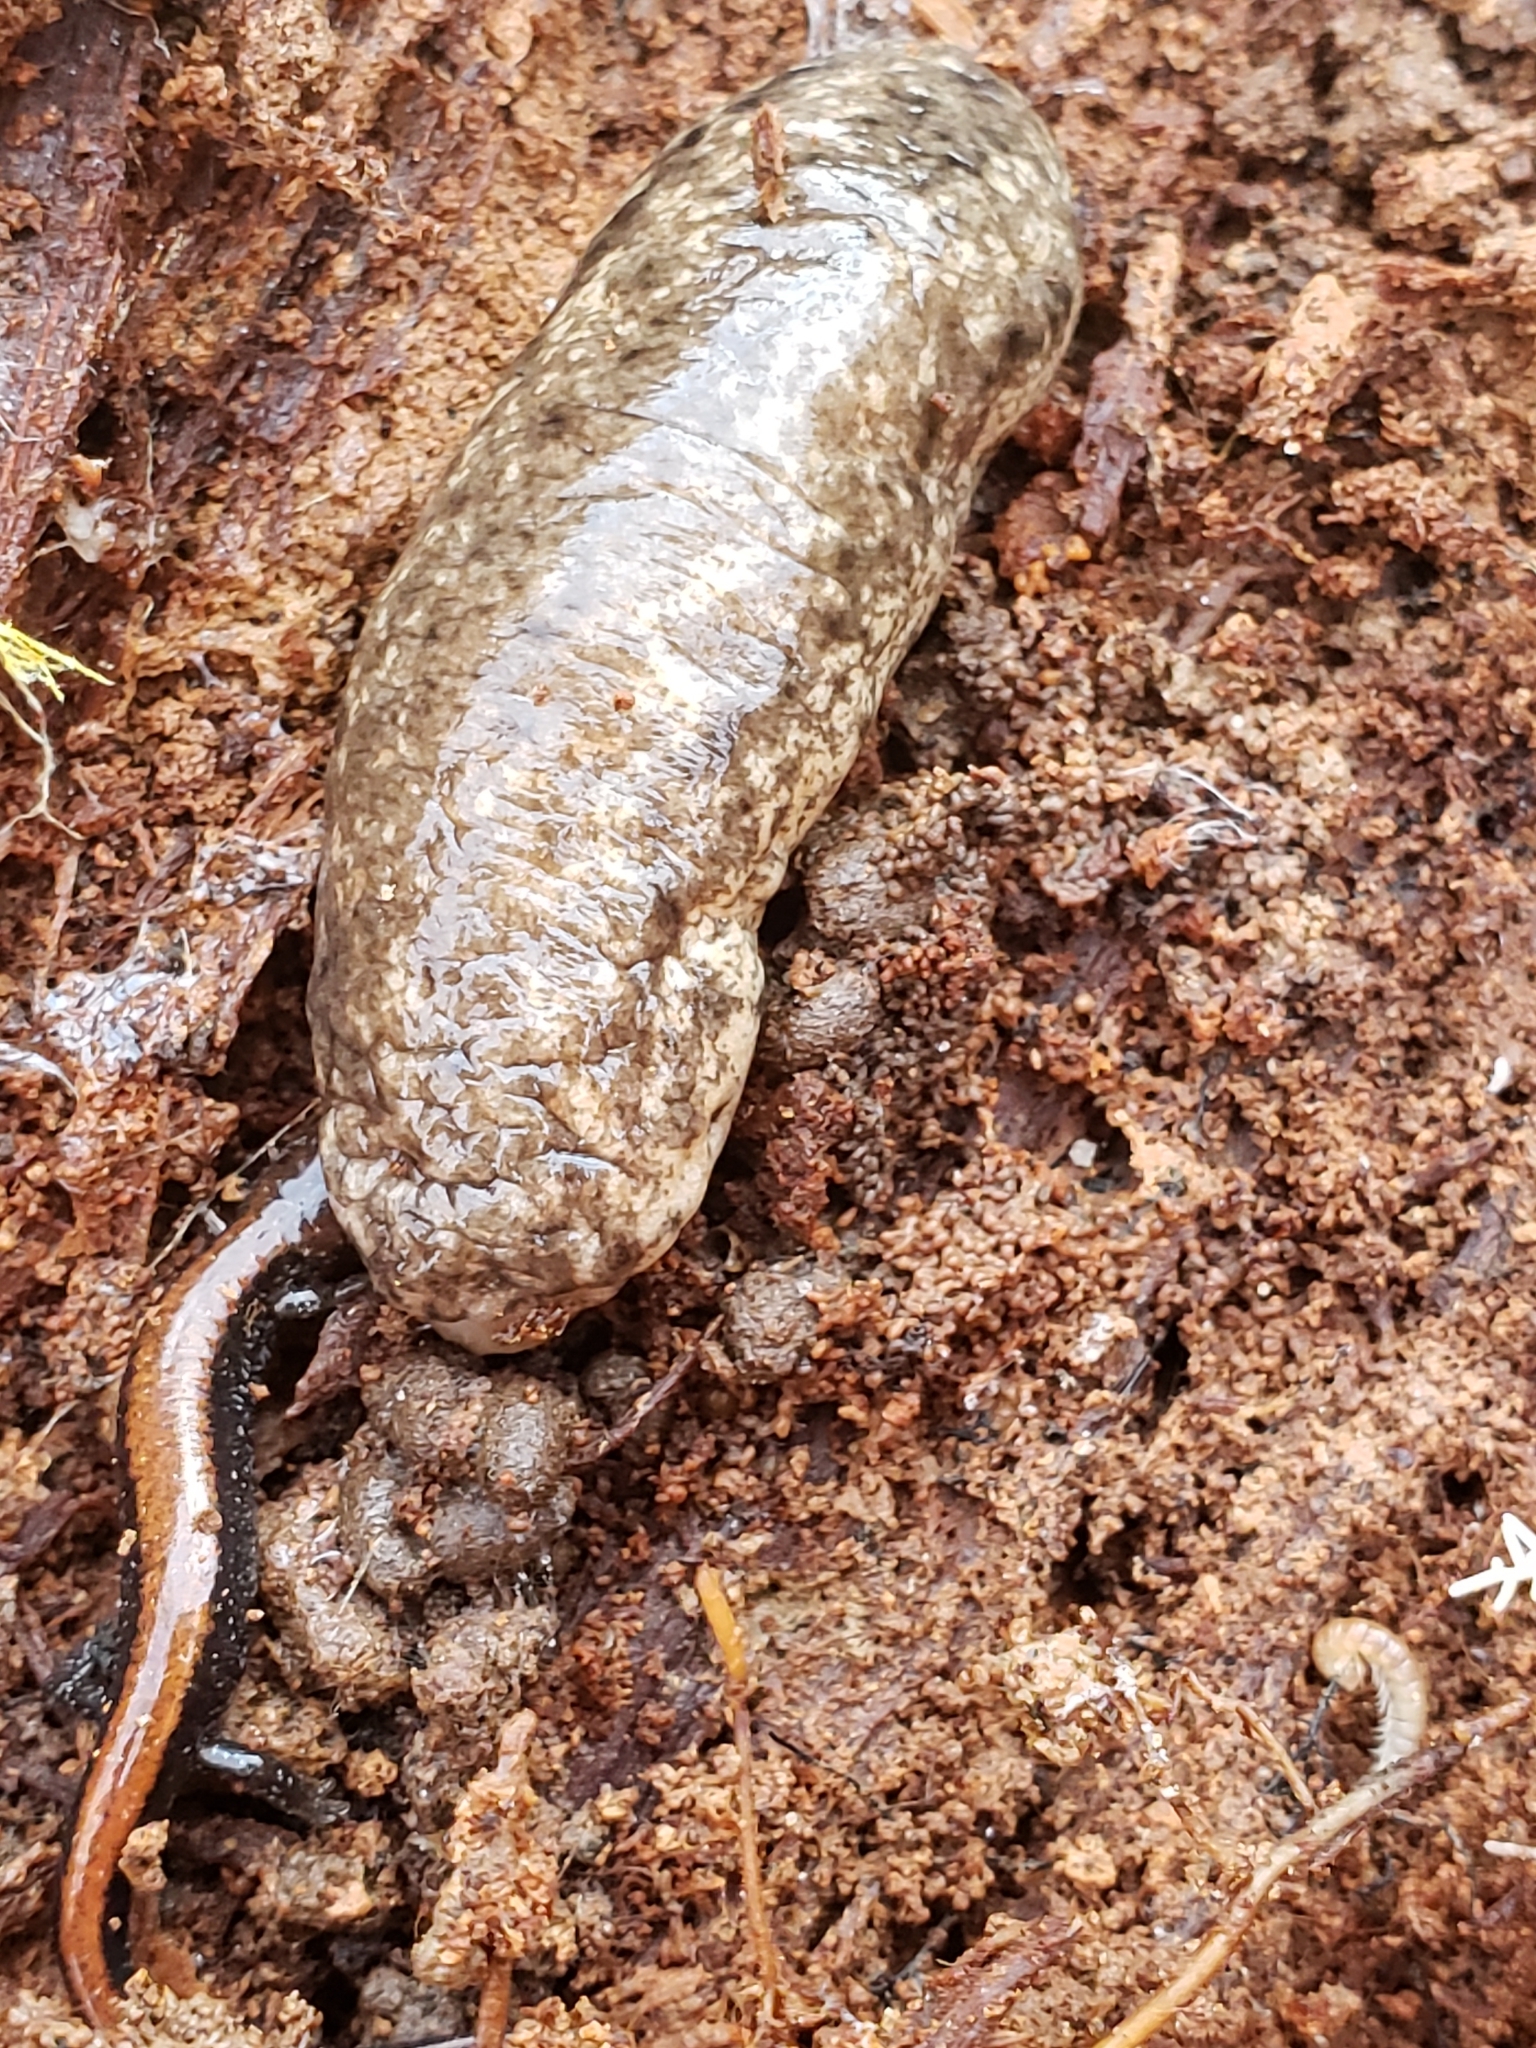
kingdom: Animalia
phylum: Mollusca
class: Gastropoda
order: Stylommatophora
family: Philomycidae
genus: Philomycus
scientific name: Philomycus togatus
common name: Toga mantleslug
